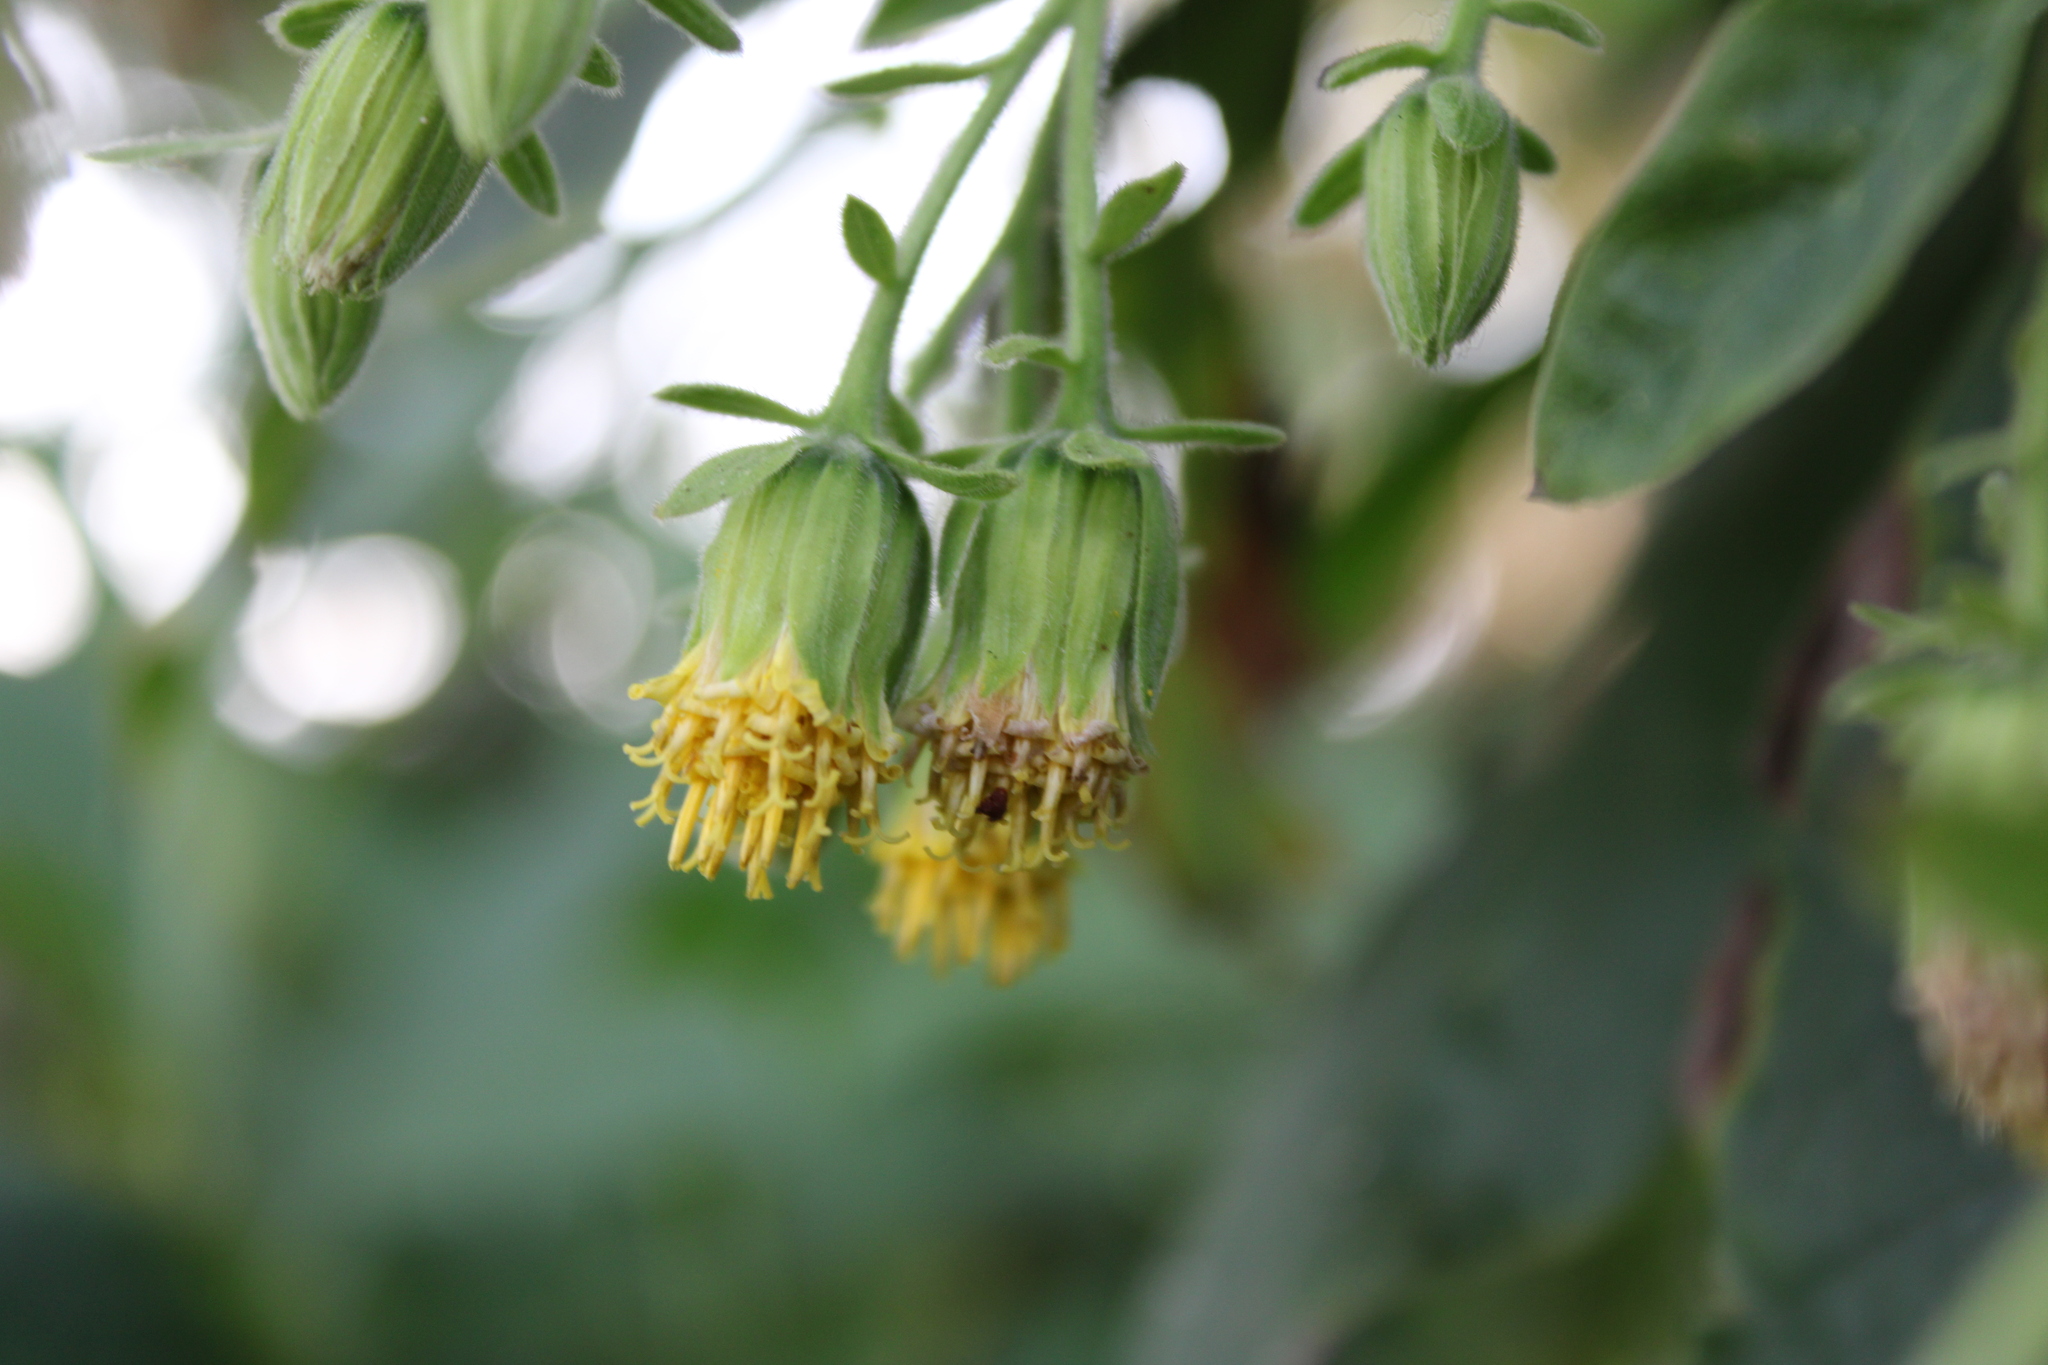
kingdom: Plantae
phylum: Tracheophyta
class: Magnoliopsida
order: Asterales
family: Asteraceae
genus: Trixis
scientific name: Trixis praestans
